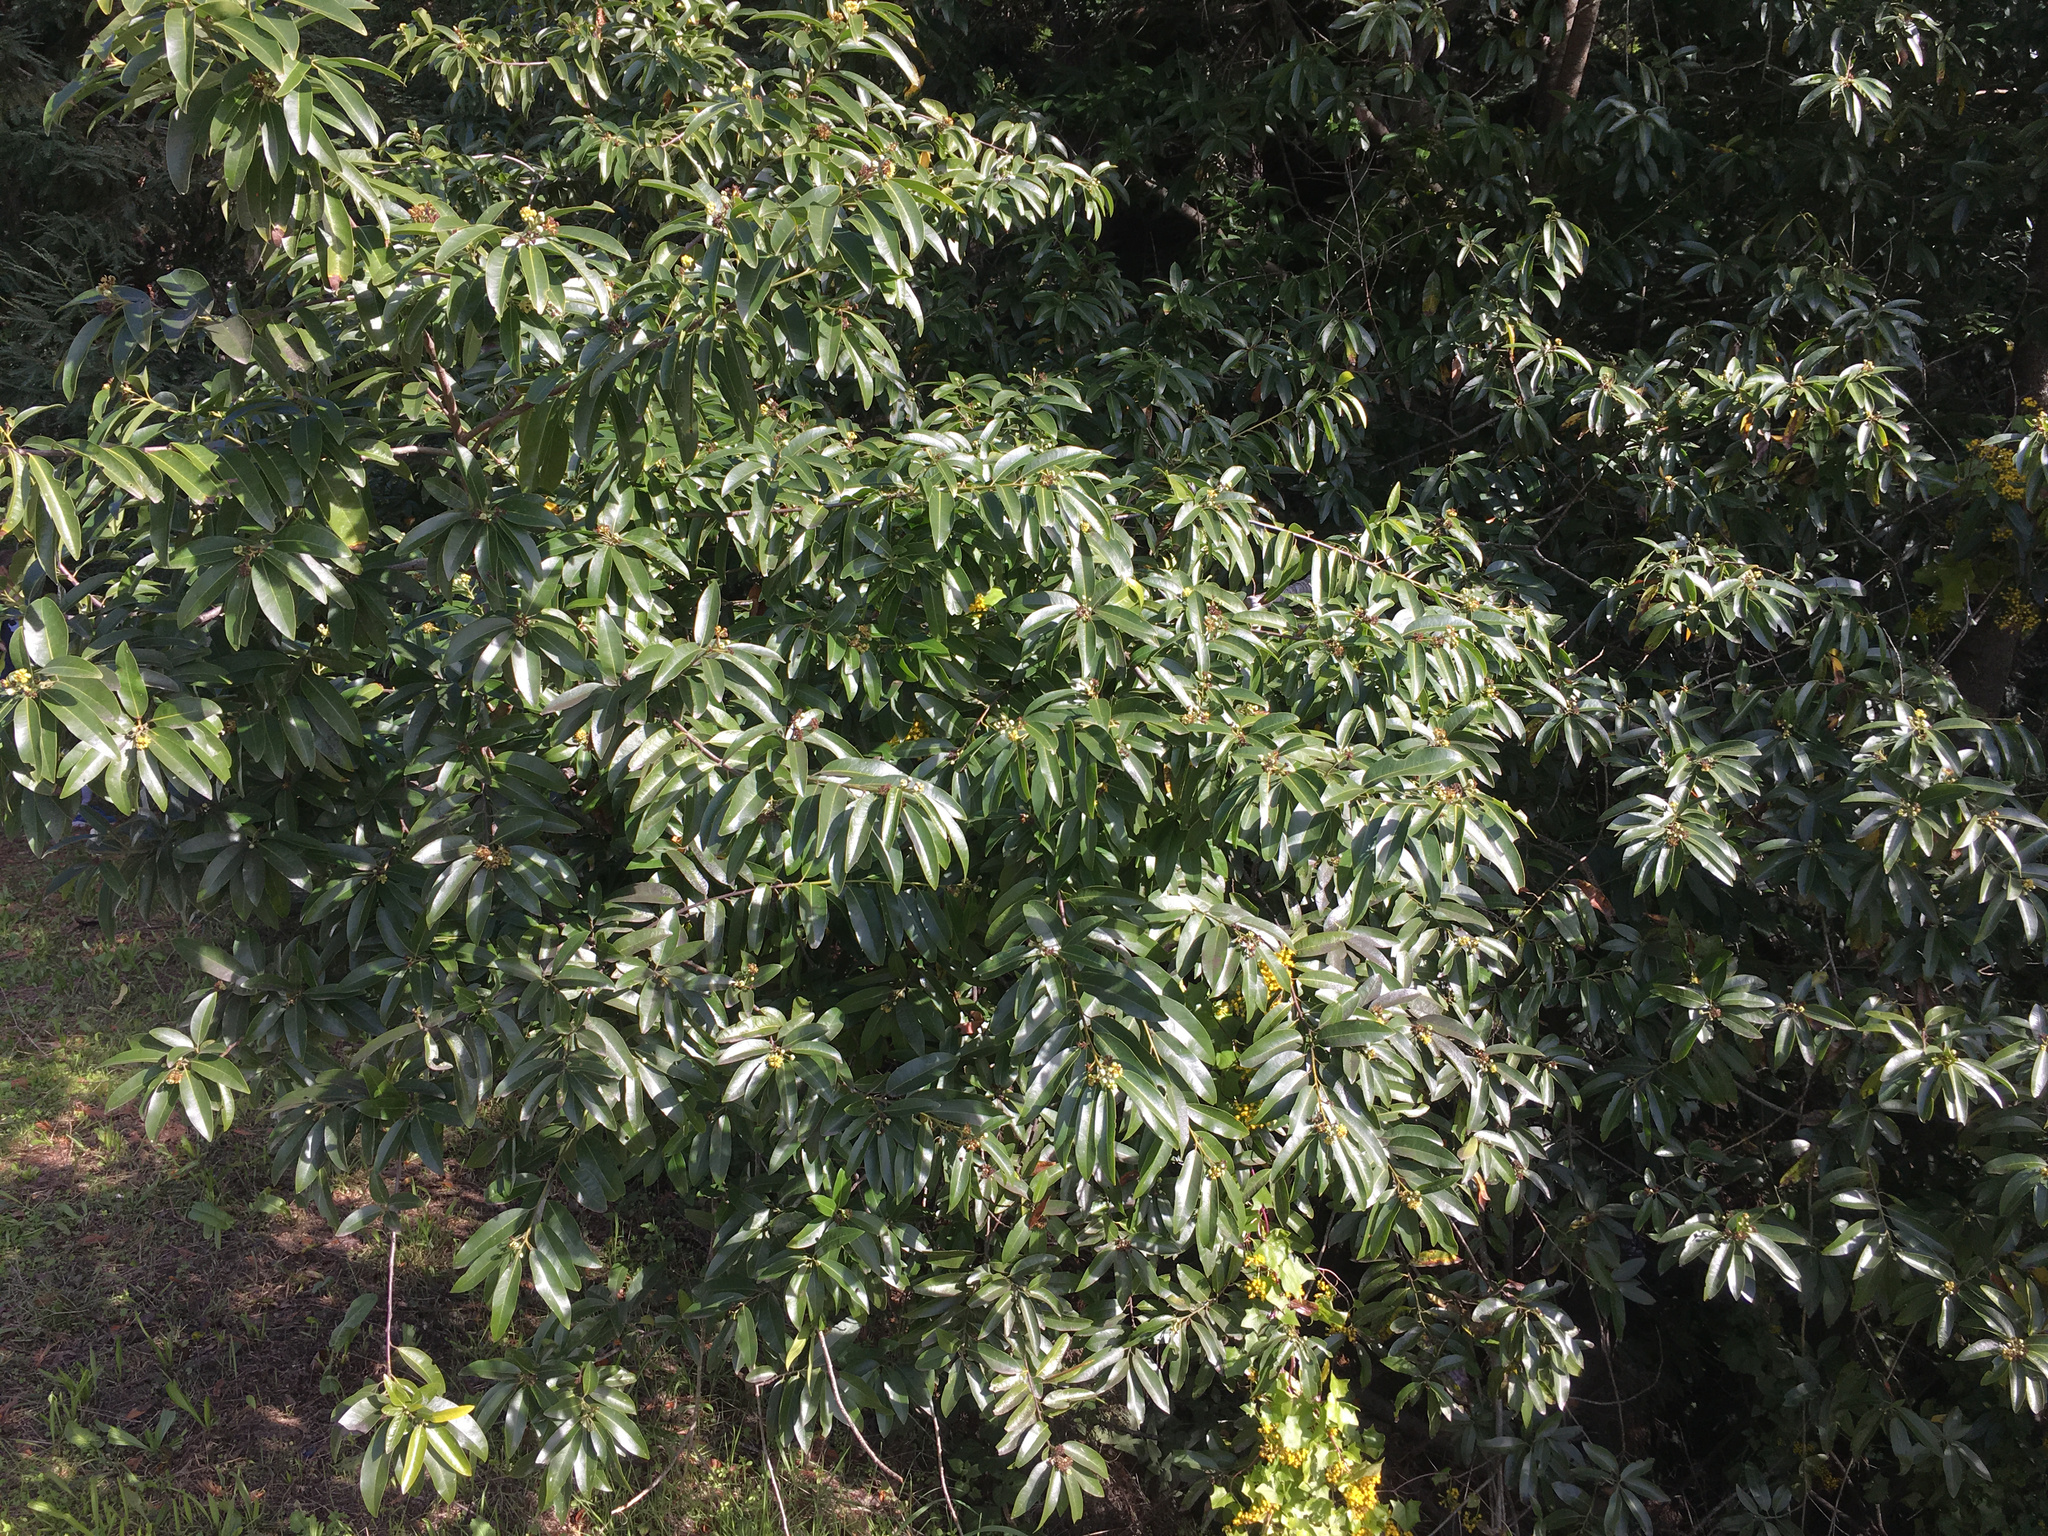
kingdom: Plantae
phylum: Tracheophyta
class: Magnoliopsida
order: Laurales
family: Lauraceae
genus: Umbellularia
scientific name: Umbellularia californica
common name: California bay
